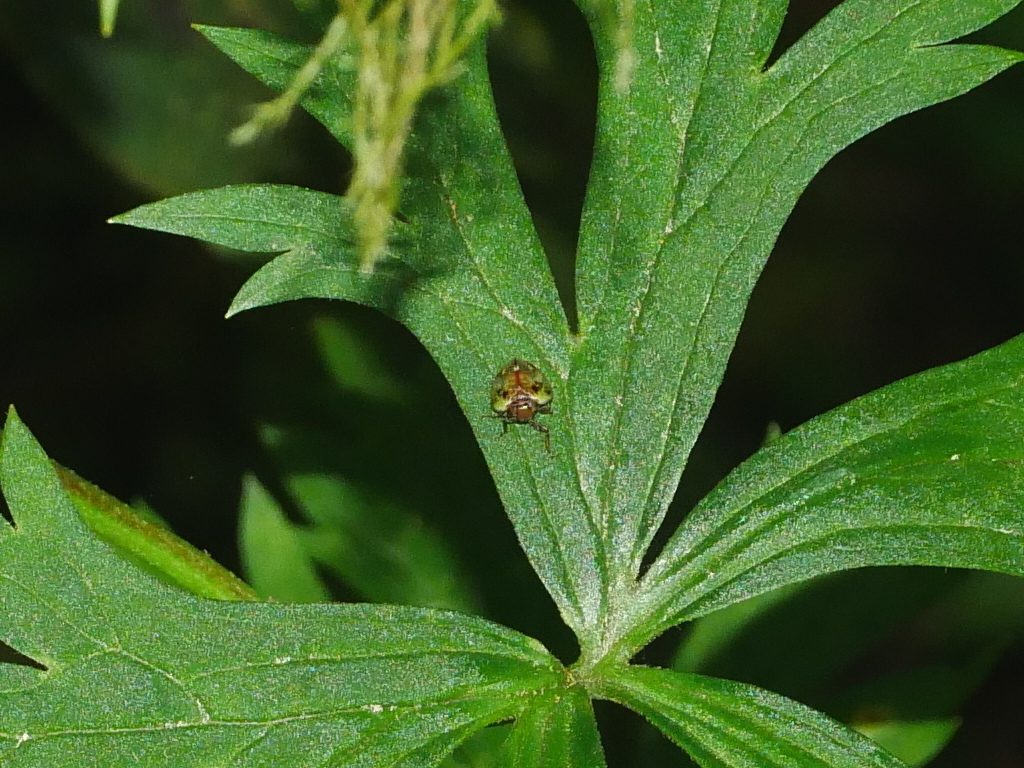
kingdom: Plantae
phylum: Tracheophyta
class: Magnoliopsida
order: Ranunculales
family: Ranunculaceae
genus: Aconitum
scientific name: Aconitum formosanum
